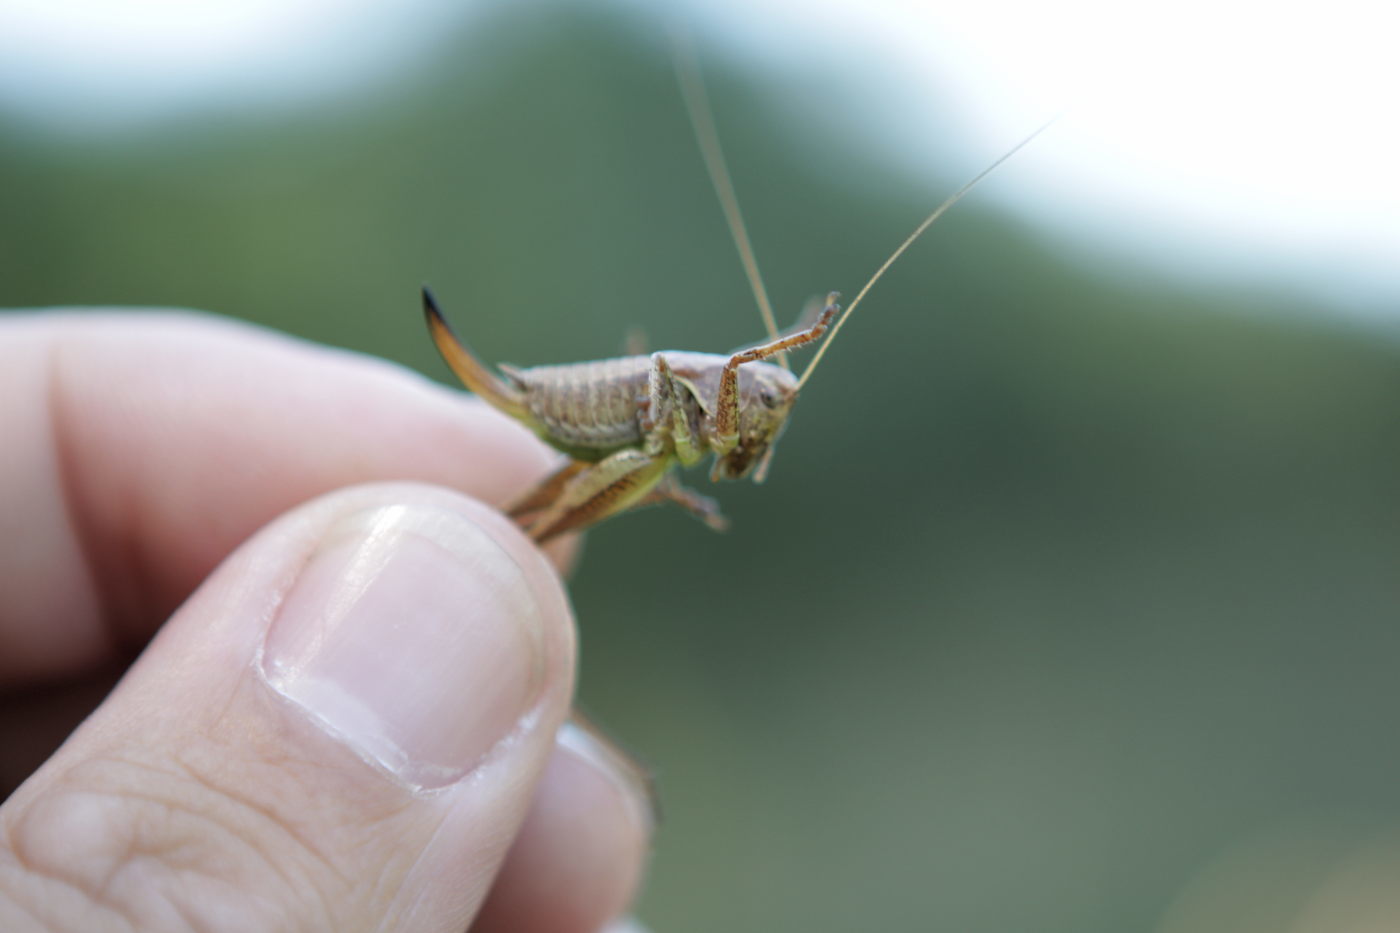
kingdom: Animalia
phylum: Arthropoda
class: Insecta
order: Orthoptera
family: Tettigoniidae
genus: Pholidoptera
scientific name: Pholidoptera griseoaptera
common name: Dark bush-cricket
